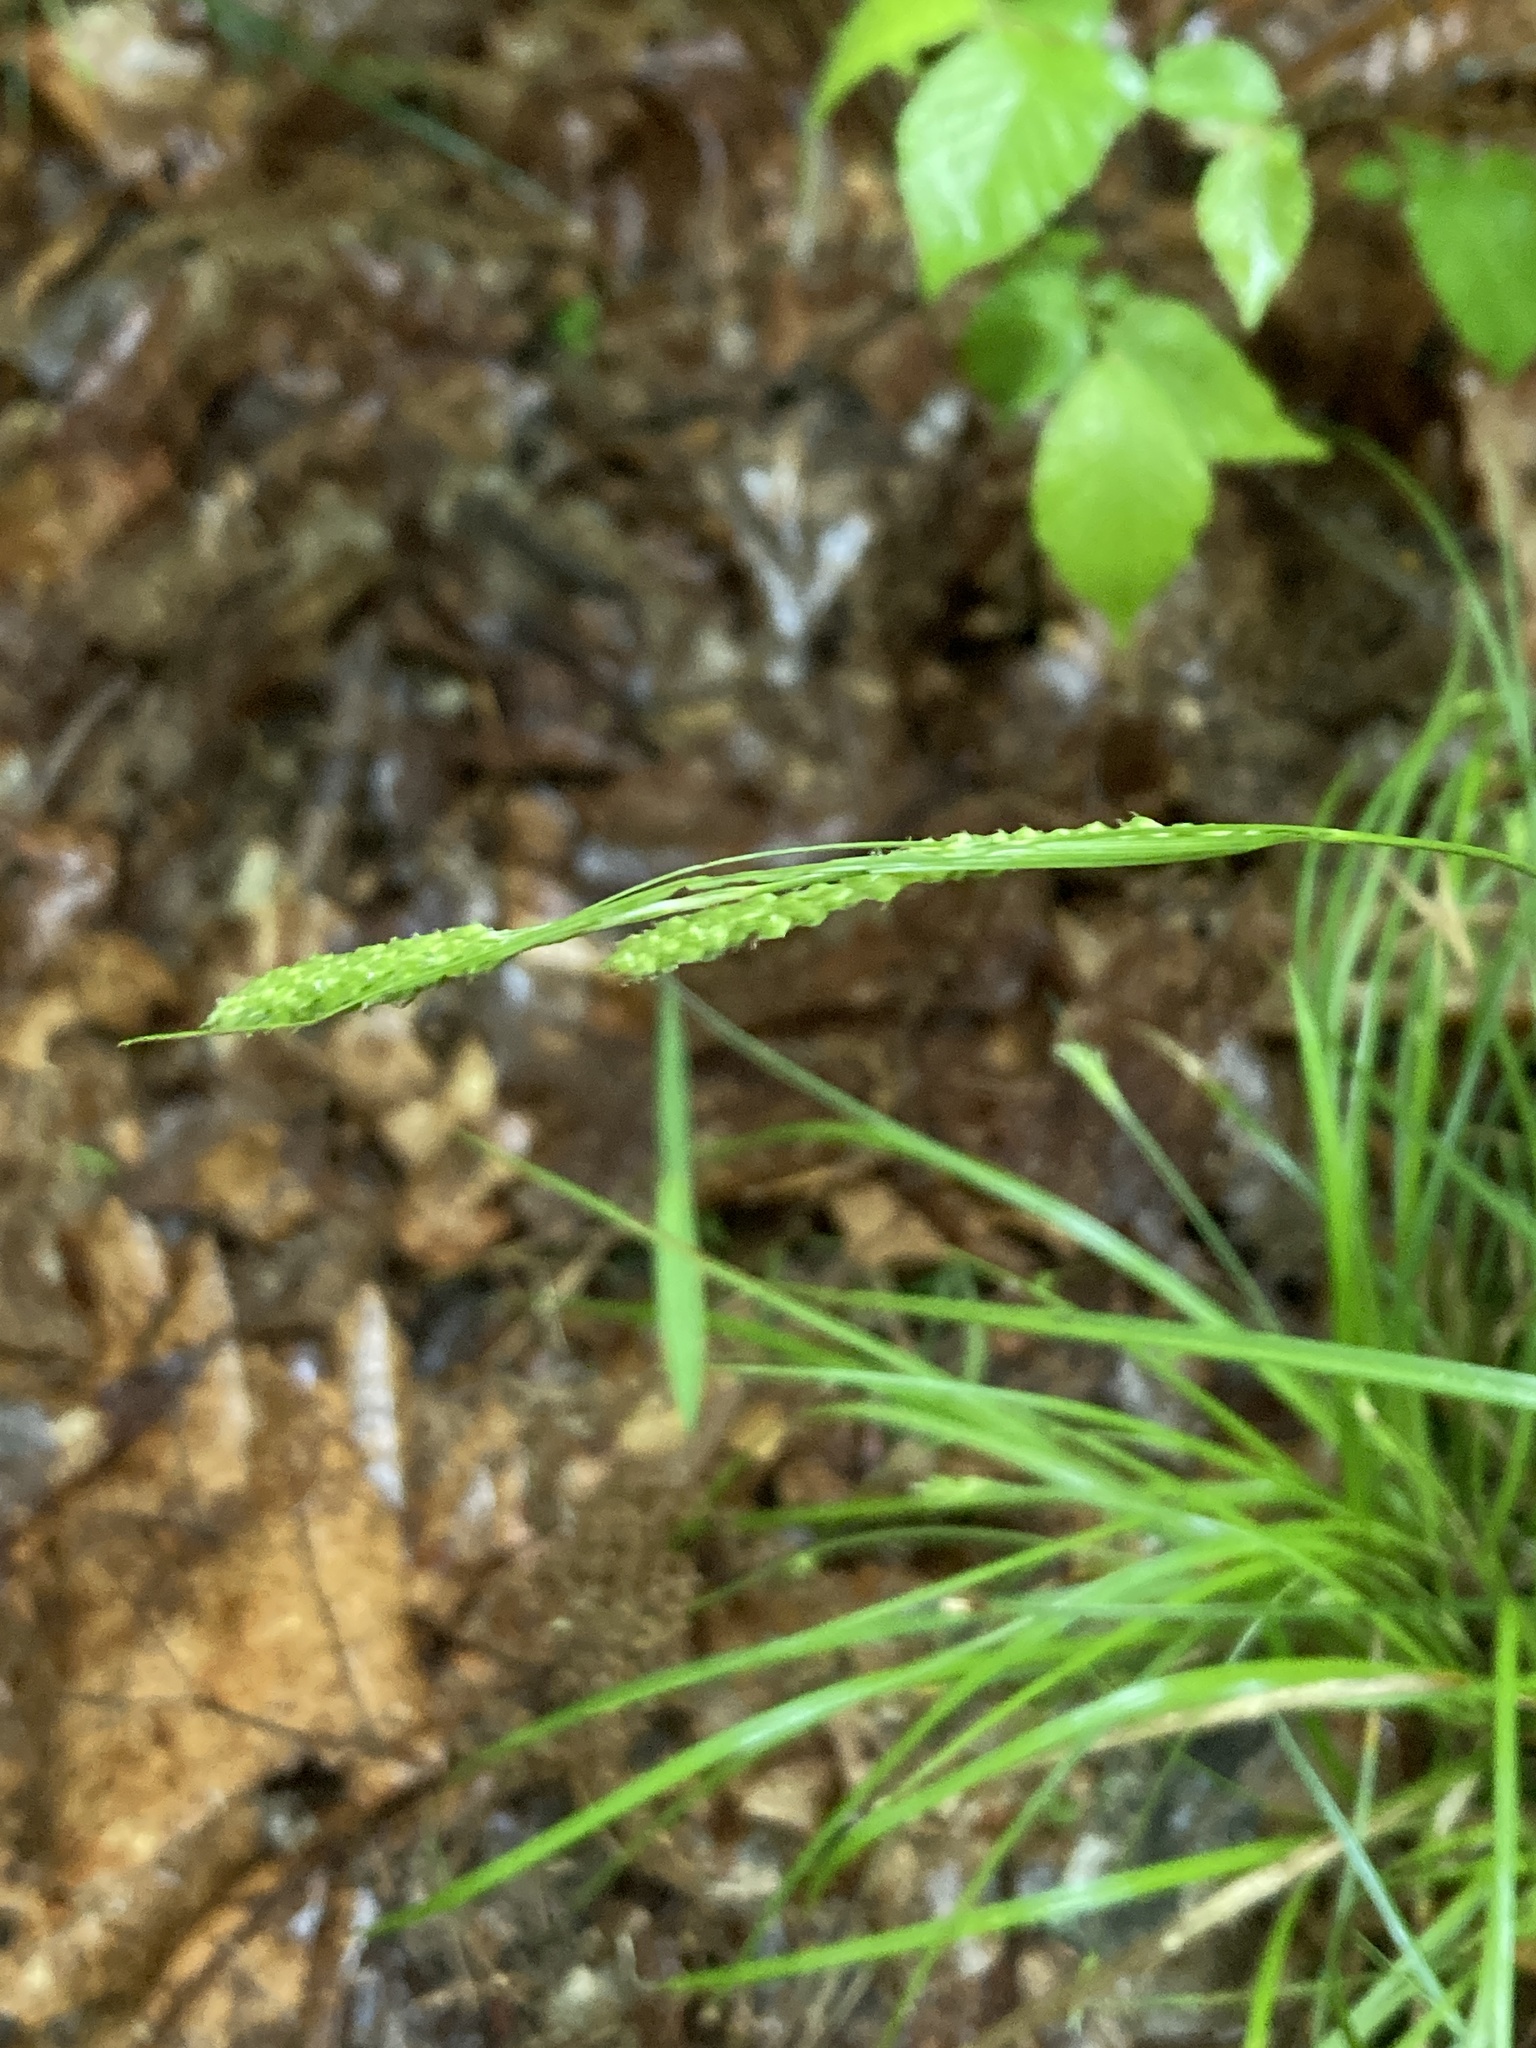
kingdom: Plantae
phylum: Tracheophyta
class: Liliopsida
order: Poales
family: Cyperaceae
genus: Carex
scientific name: Carex virescens
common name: Ribbed sedge
